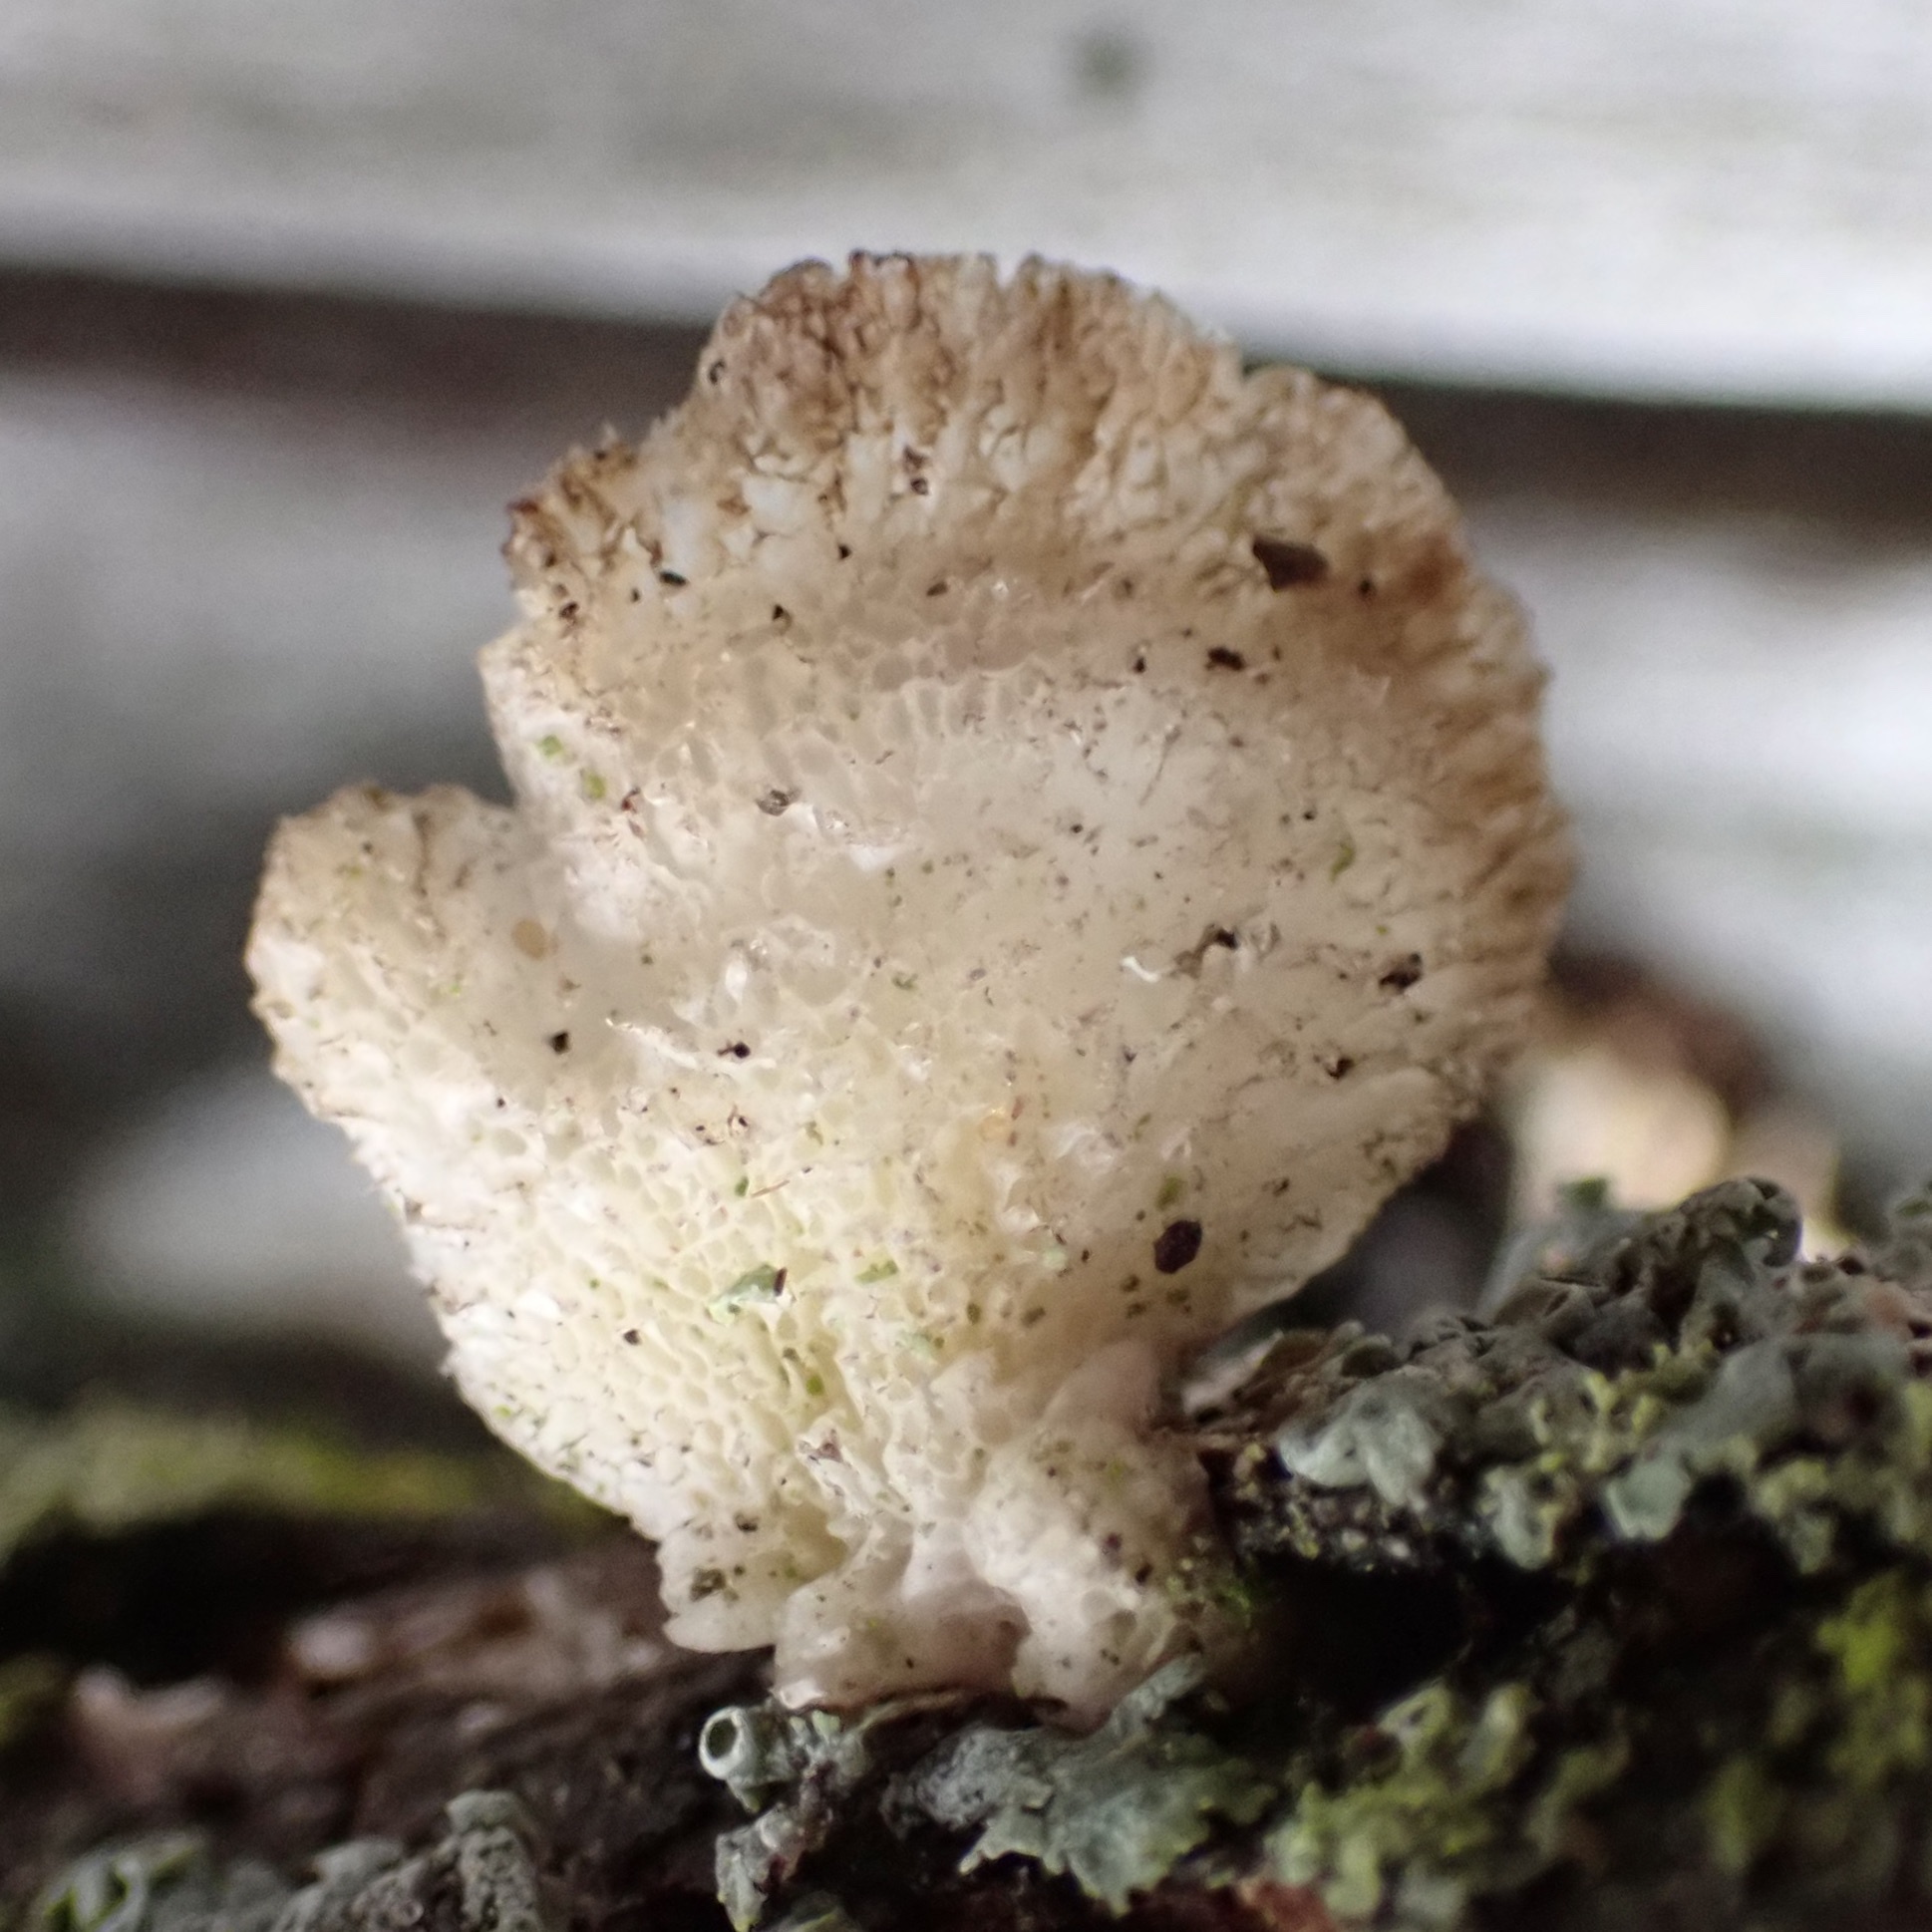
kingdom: Fungi
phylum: Basidiomycota
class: Agaricomycetes
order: Polyporales
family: Polyporaceae
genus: Poronidulus
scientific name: Poronidulus conchifer
